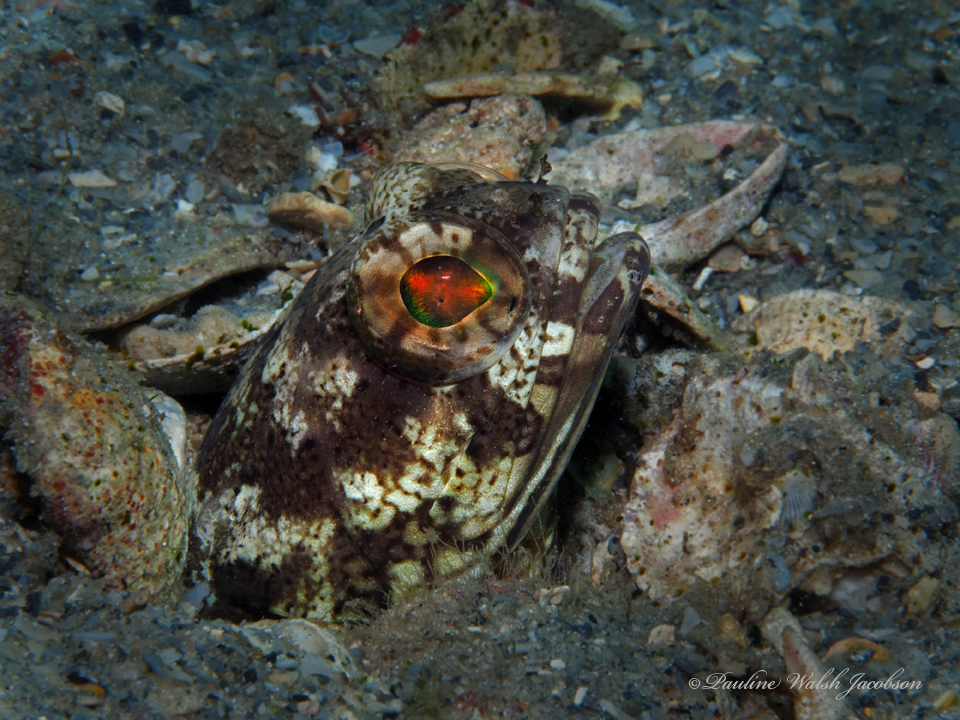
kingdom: Animalia
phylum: Chordata
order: Perciformes
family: Opistognathidae
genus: Opistognathus
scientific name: Opistognathus robinsi
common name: Spotfin jawfish
